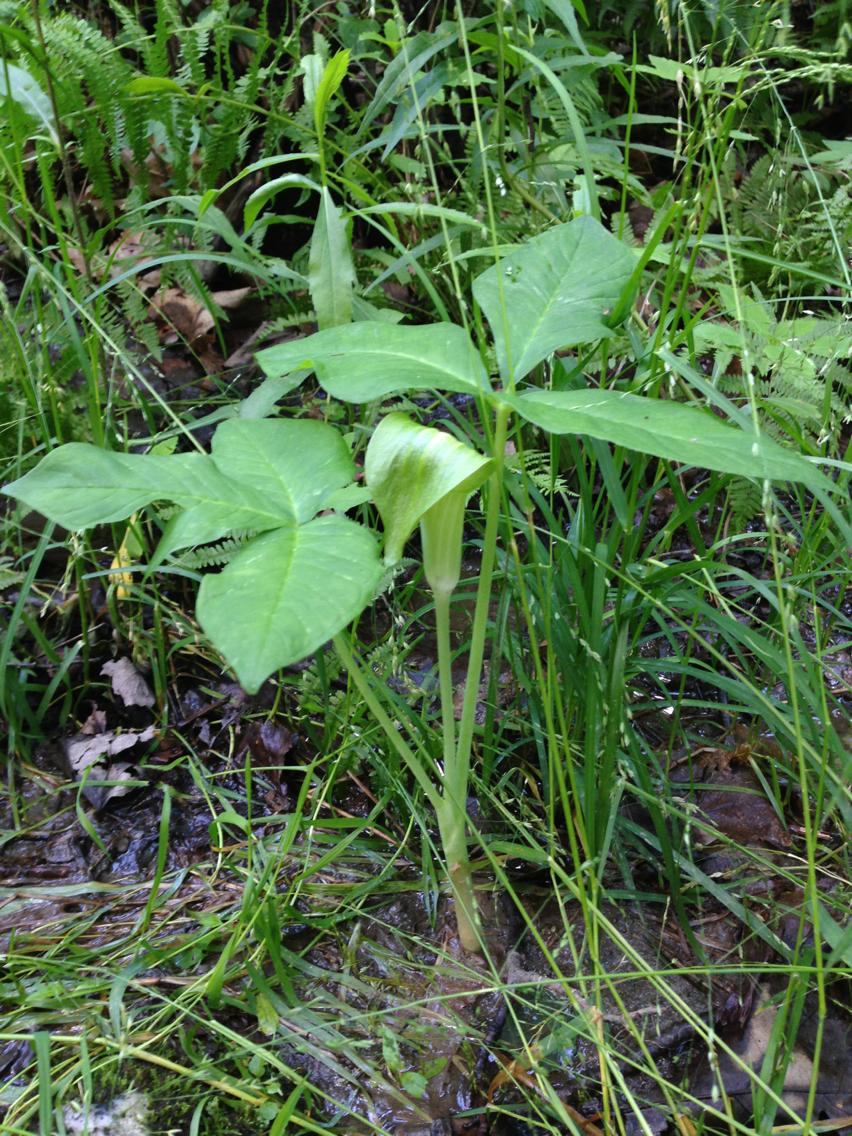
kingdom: Plantae
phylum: Tracheophyta
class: Liliopsida
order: Alismatales
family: Araceae
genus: Arisaema
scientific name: Arisaema triphyllum
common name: Jack-in-the-pulpit
